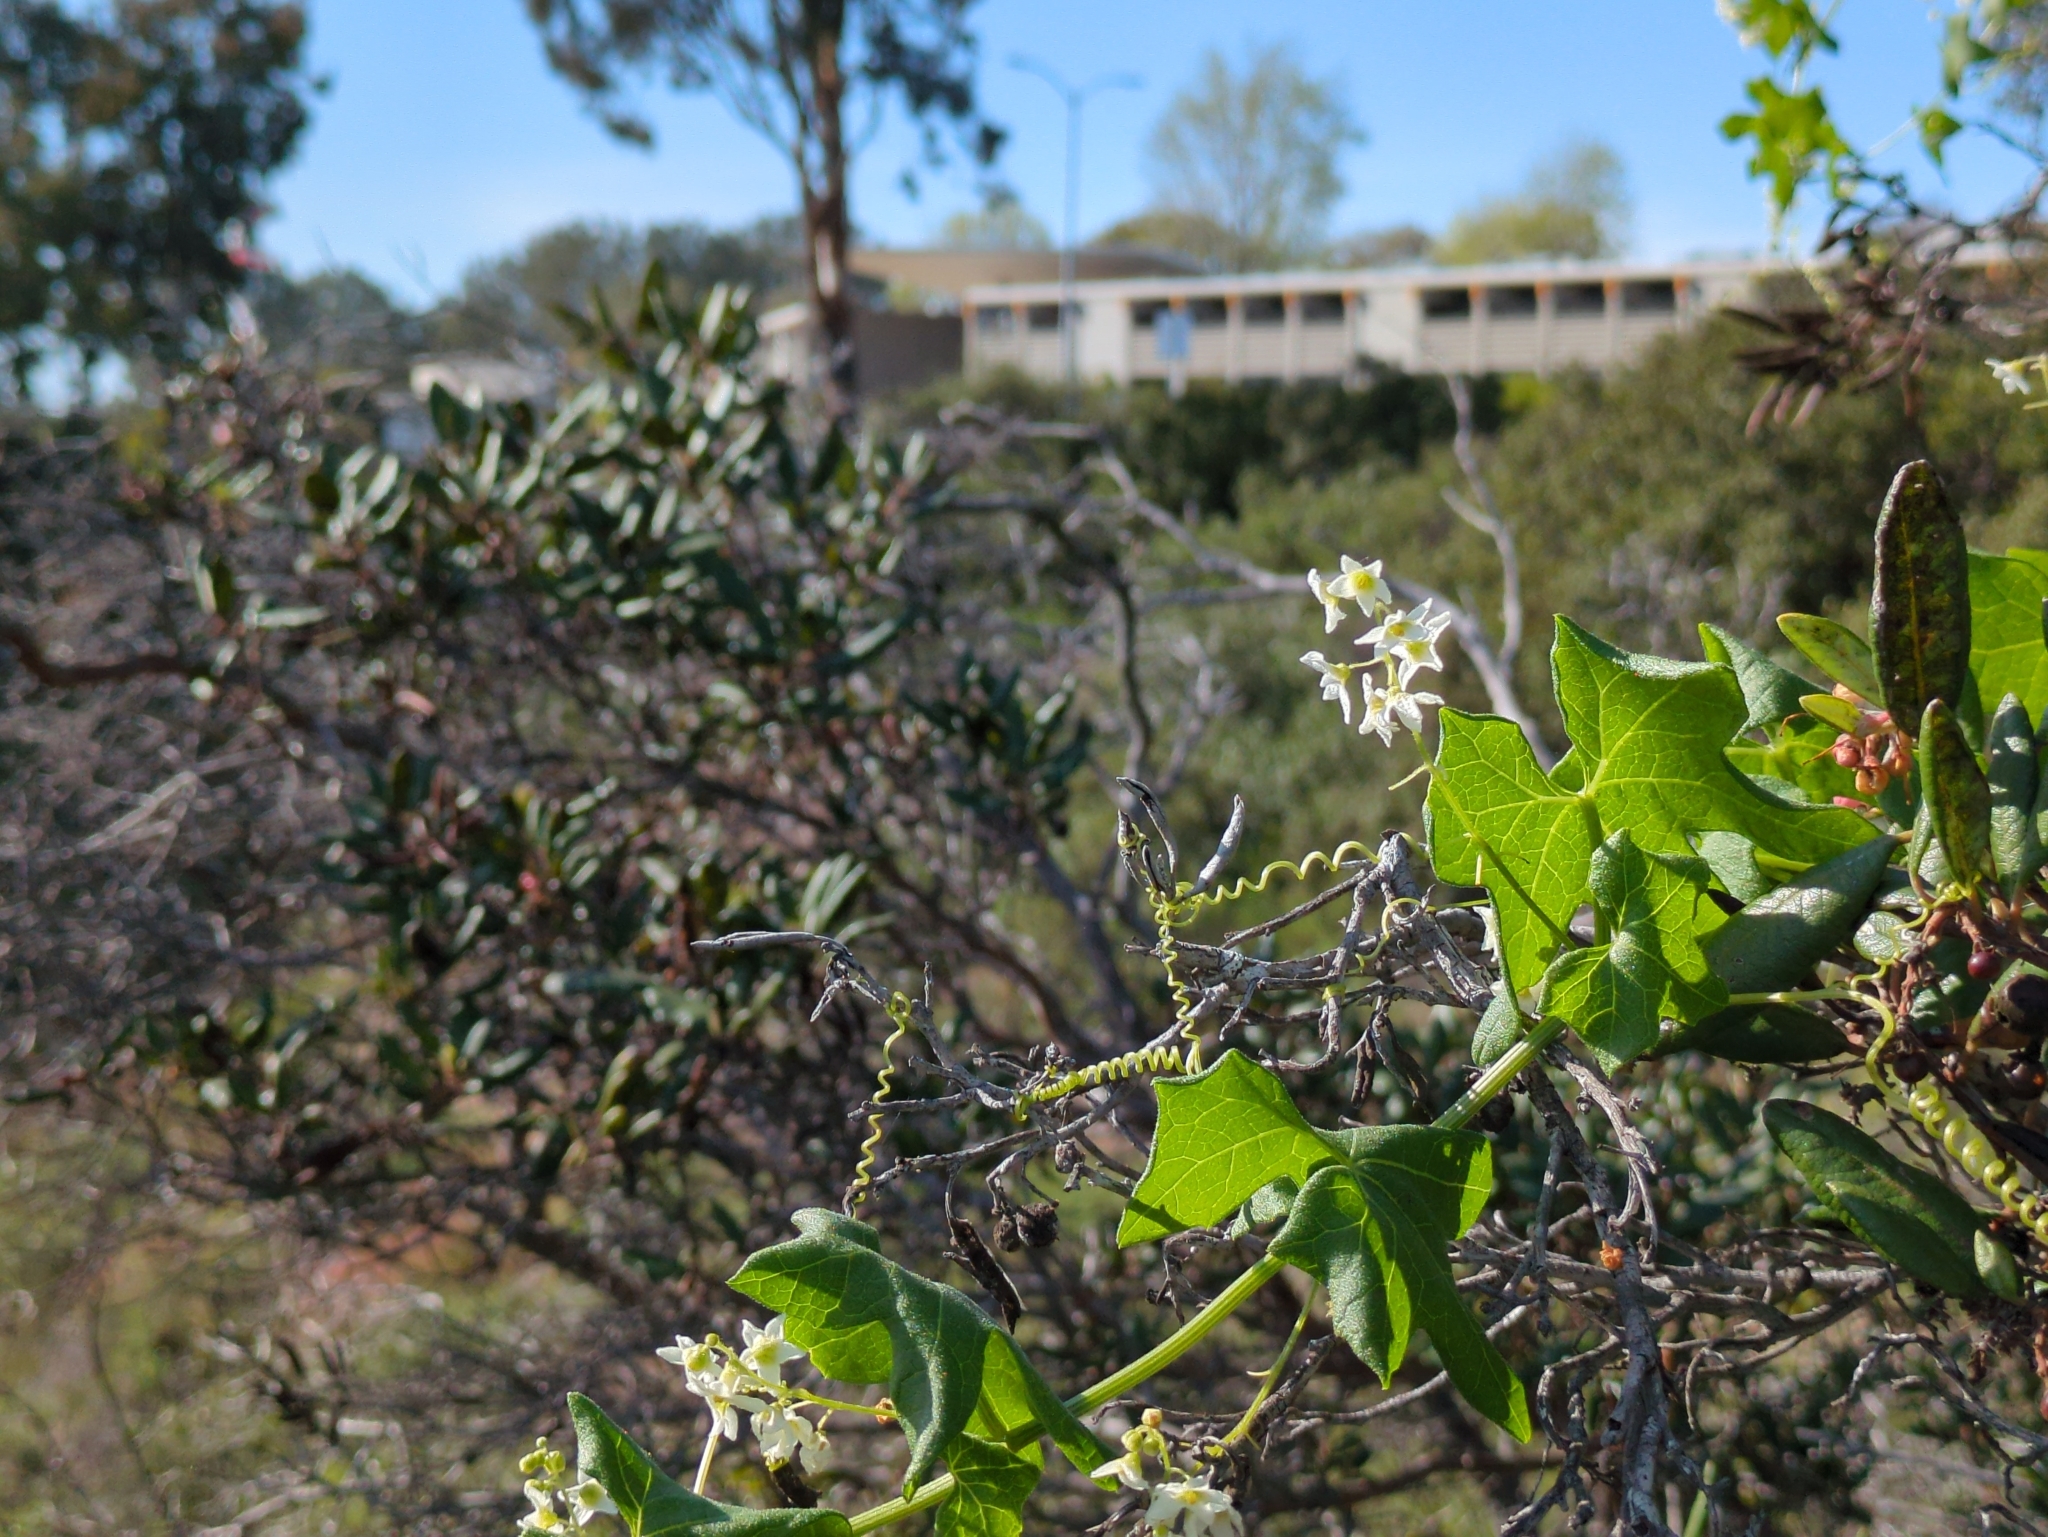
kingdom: Plantae
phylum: Tracheophyta
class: Magnoliopsida
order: Cucurbitales
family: Cucurbitaceae
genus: Marah
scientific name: Marah macrocarpa
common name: Cucamonga manroot
